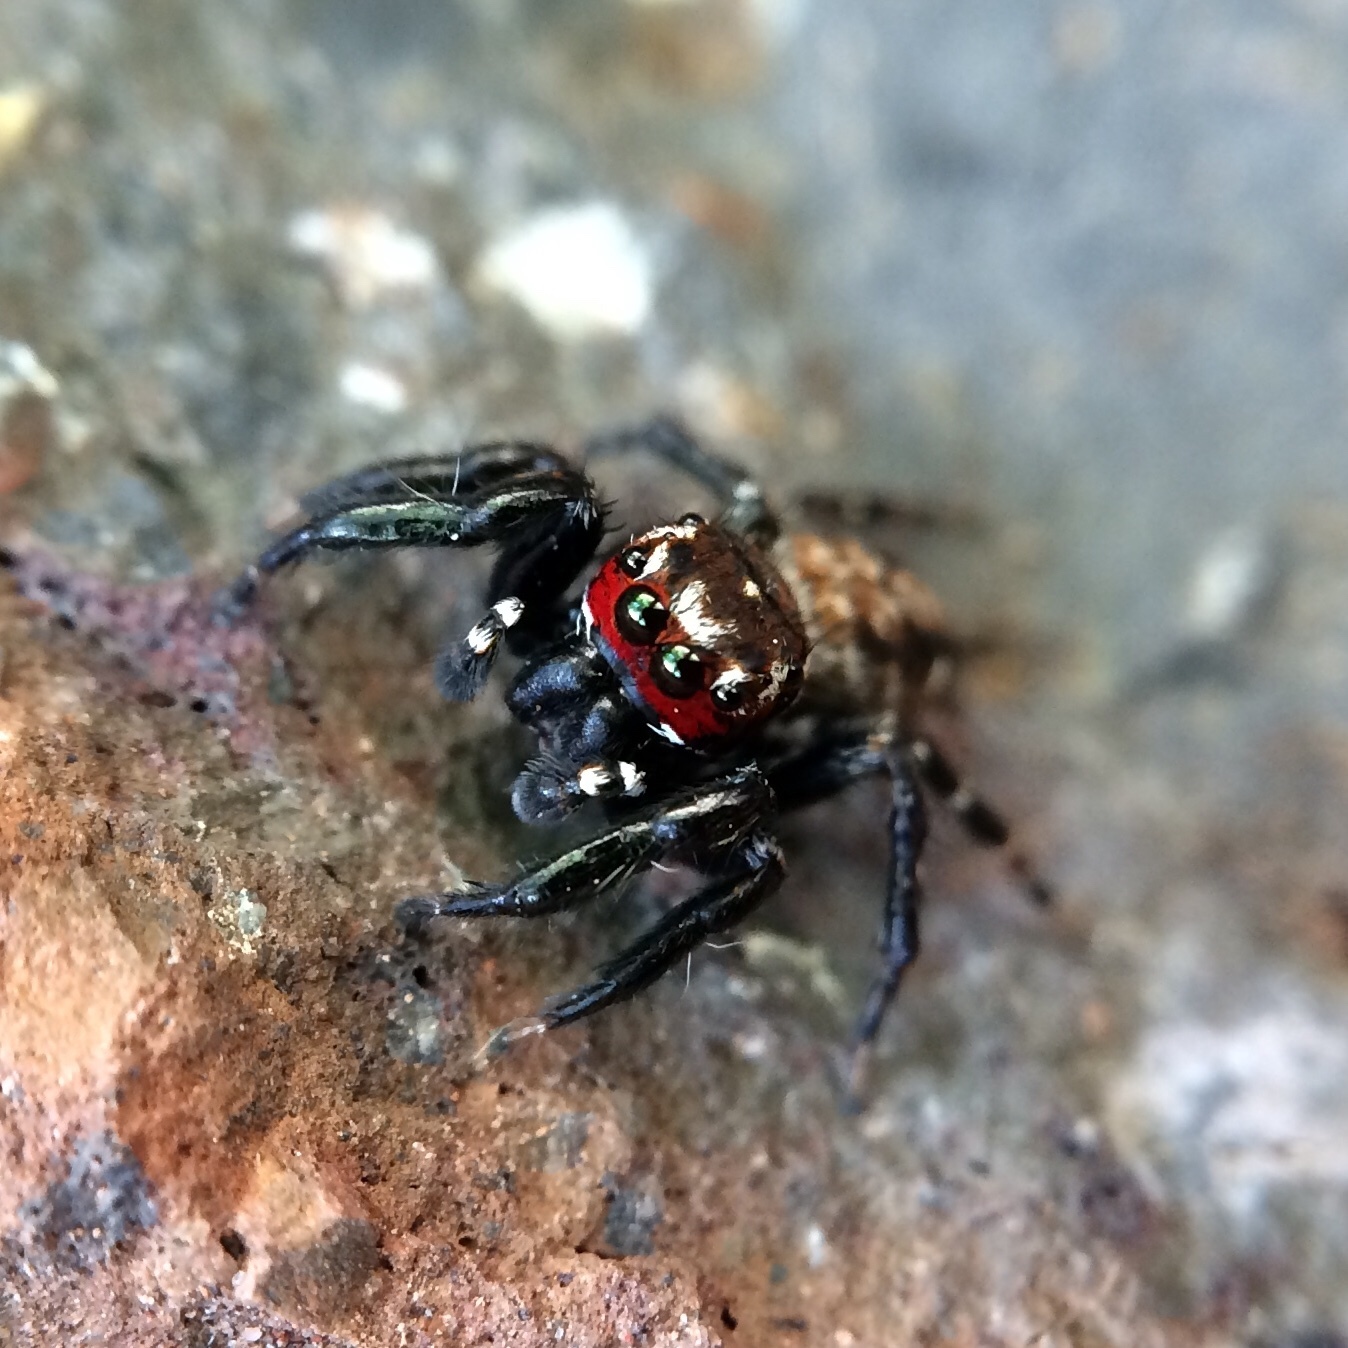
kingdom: Animalia
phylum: Arthropoda
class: Arachnida
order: Araneae
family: Salticidae
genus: Evarcha
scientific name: Evarcha prosimilis
